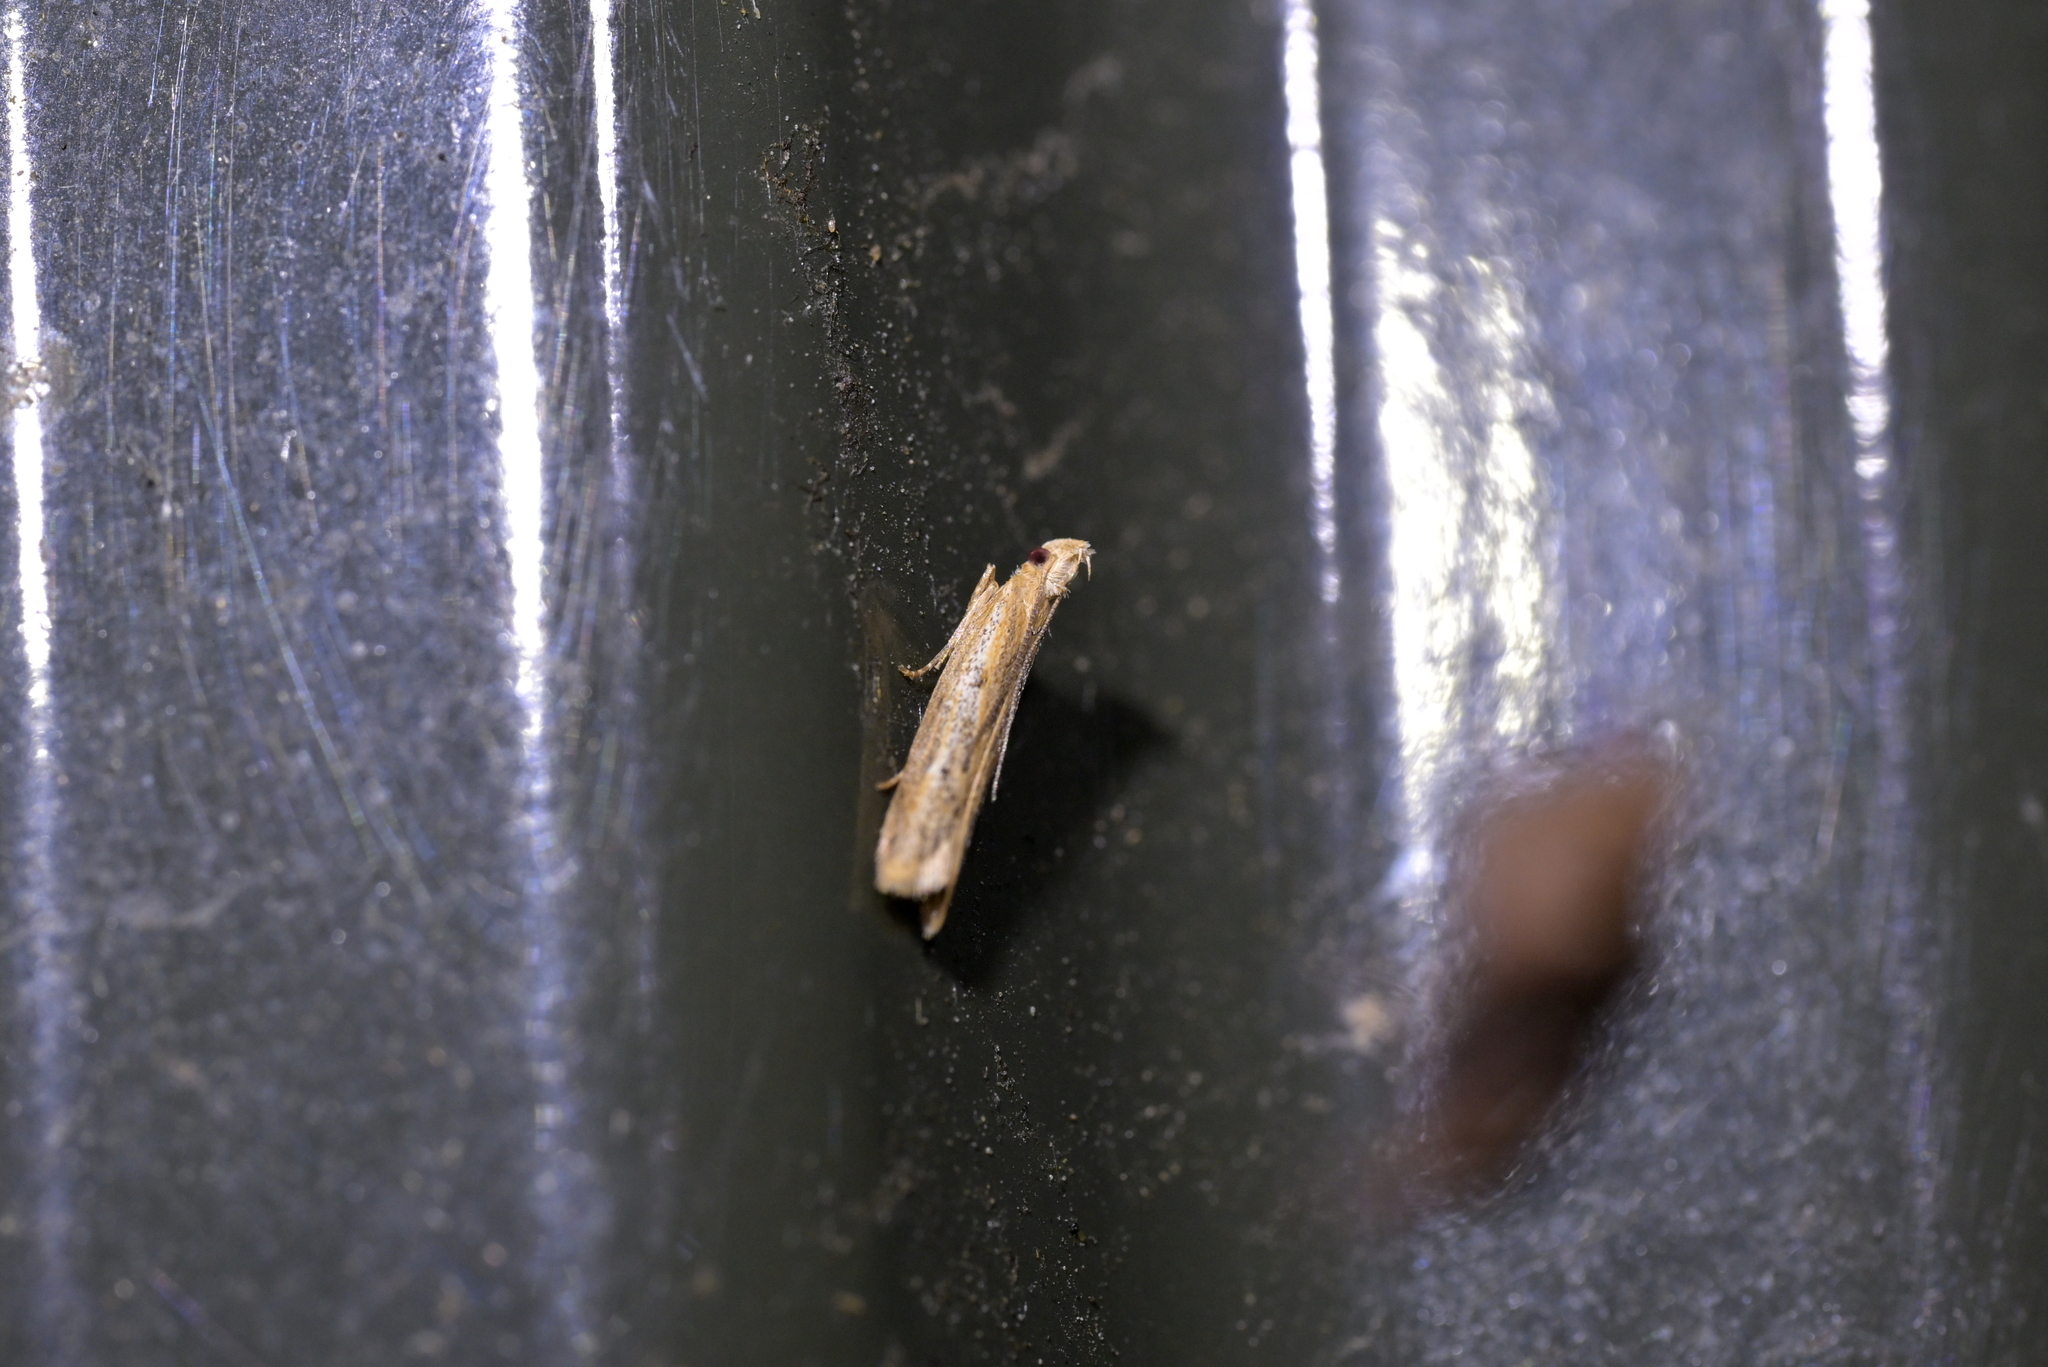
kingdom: Animalia
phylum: Arthropoda
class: Insecta
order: Lepidoptera
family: Depressariidae
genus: Eutorna
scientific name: Eutorna inornata
